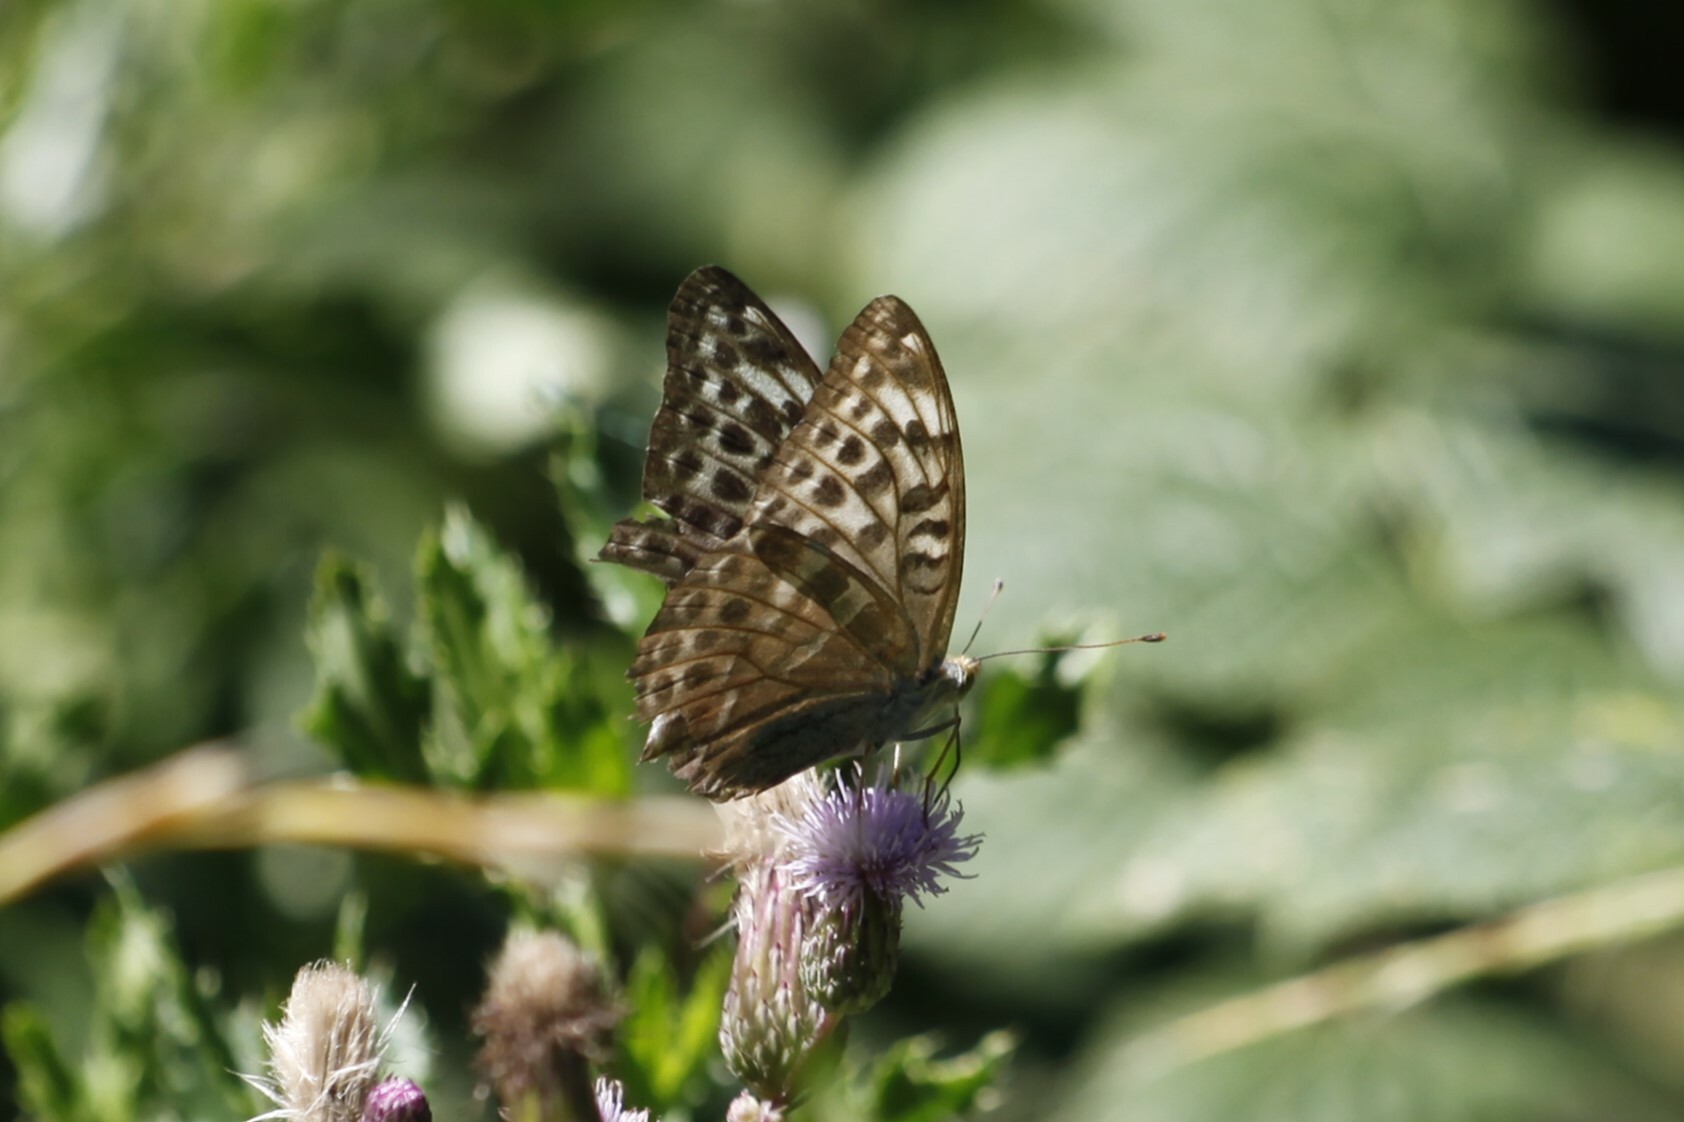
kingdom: Animalia
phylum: Arthropoda
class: Insecta
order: Lepidoptera
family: Nymphalidae
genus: Argynnis
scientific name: Argynnis paphia
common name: Silver-washed fritillary
